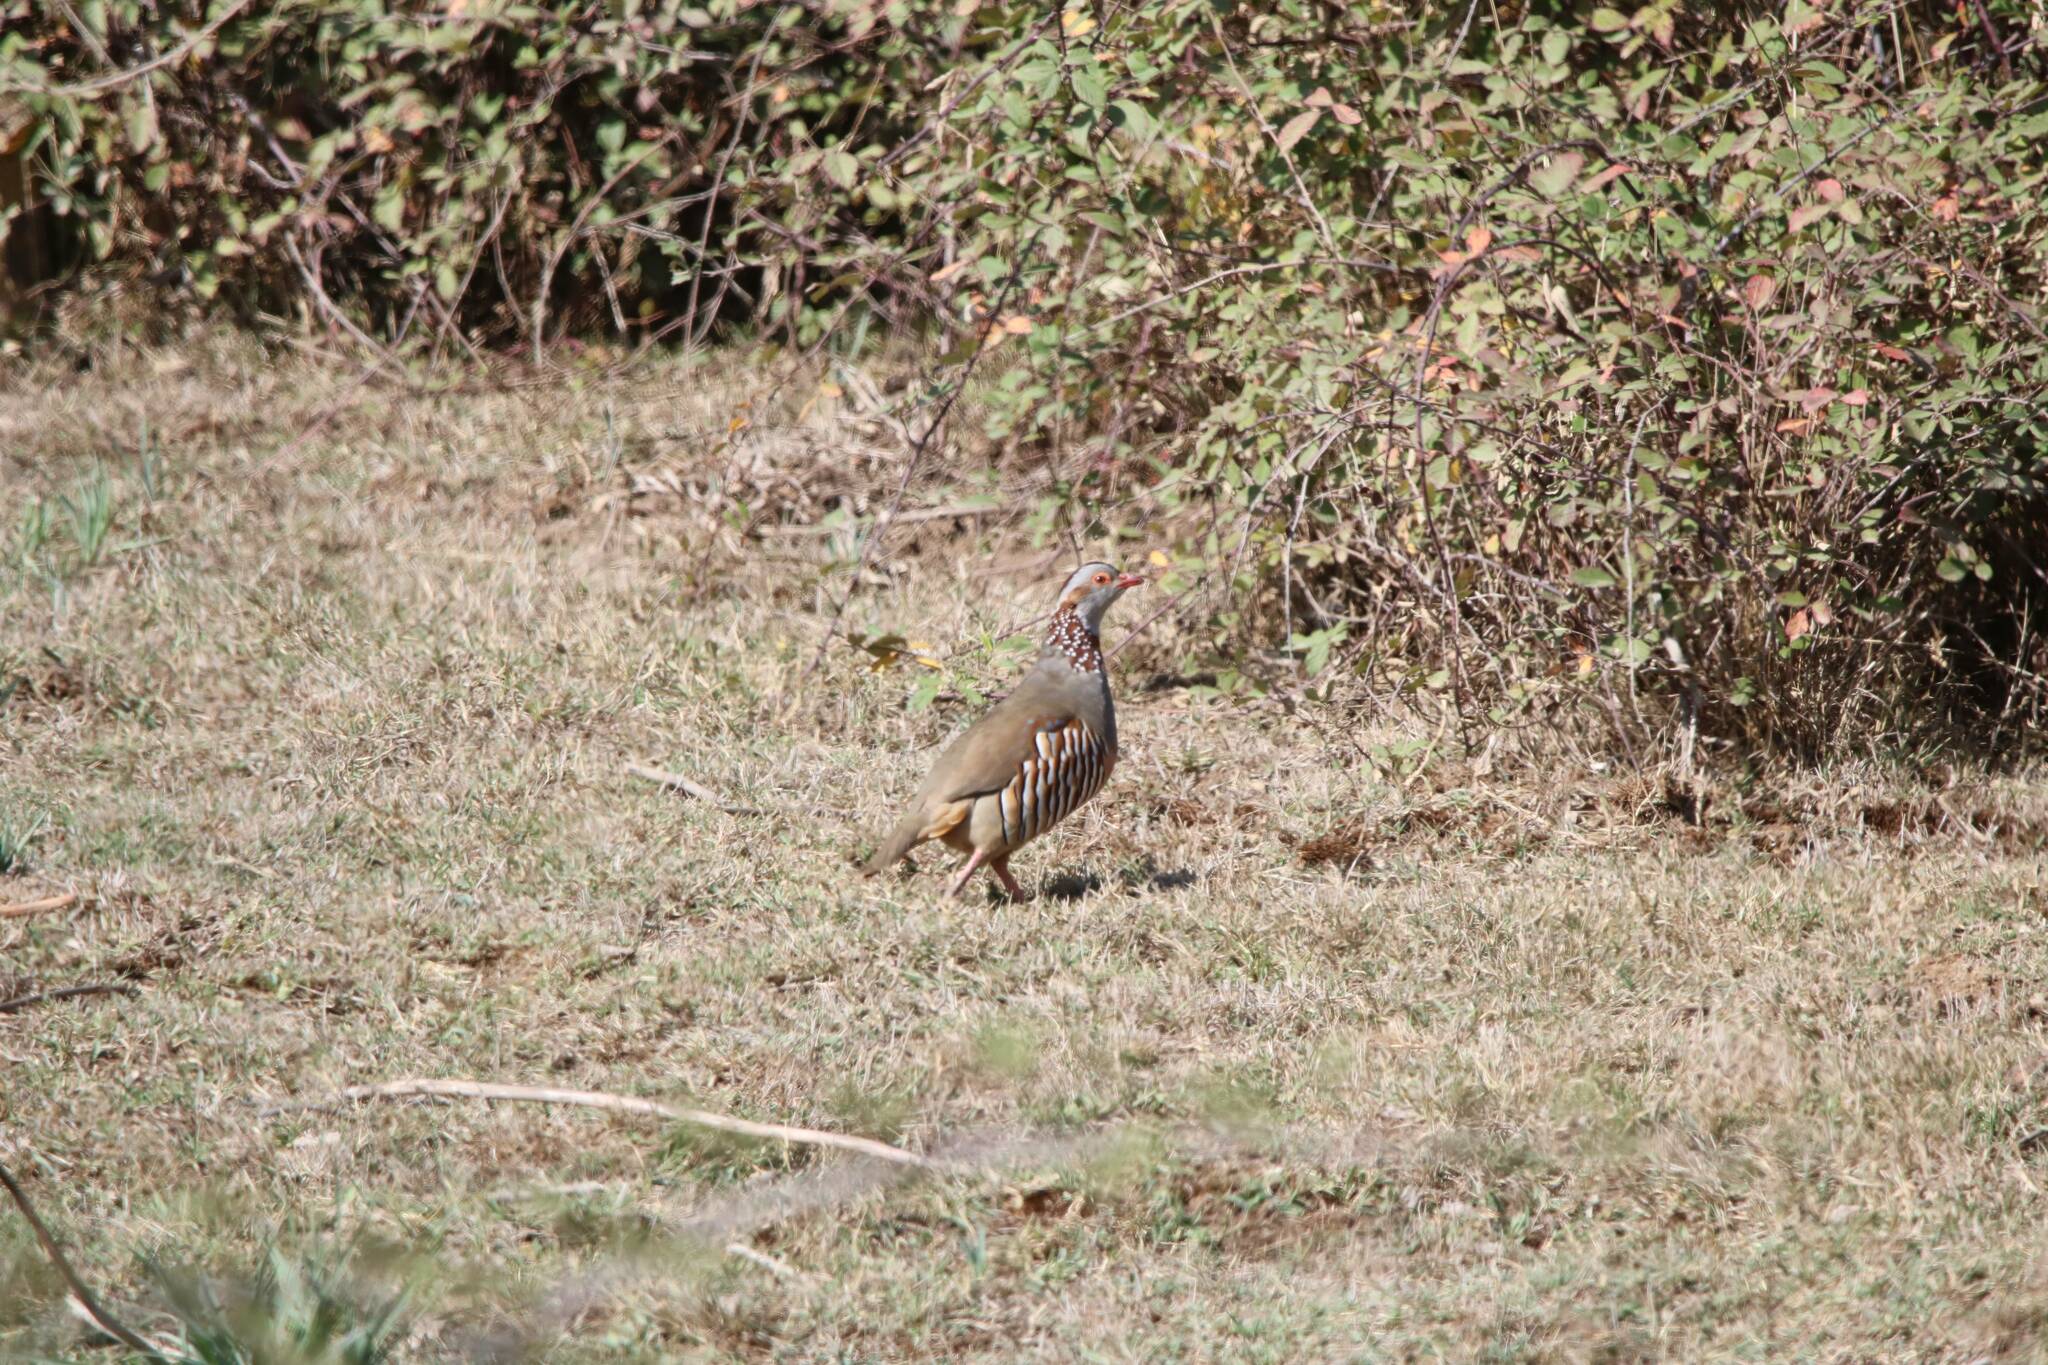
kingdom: Animalia
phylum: Chordata
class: Aves
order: Galliformes
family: Phasianidae
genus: Alectoris
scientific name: Alectoris barbara
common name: Barbary partridge
